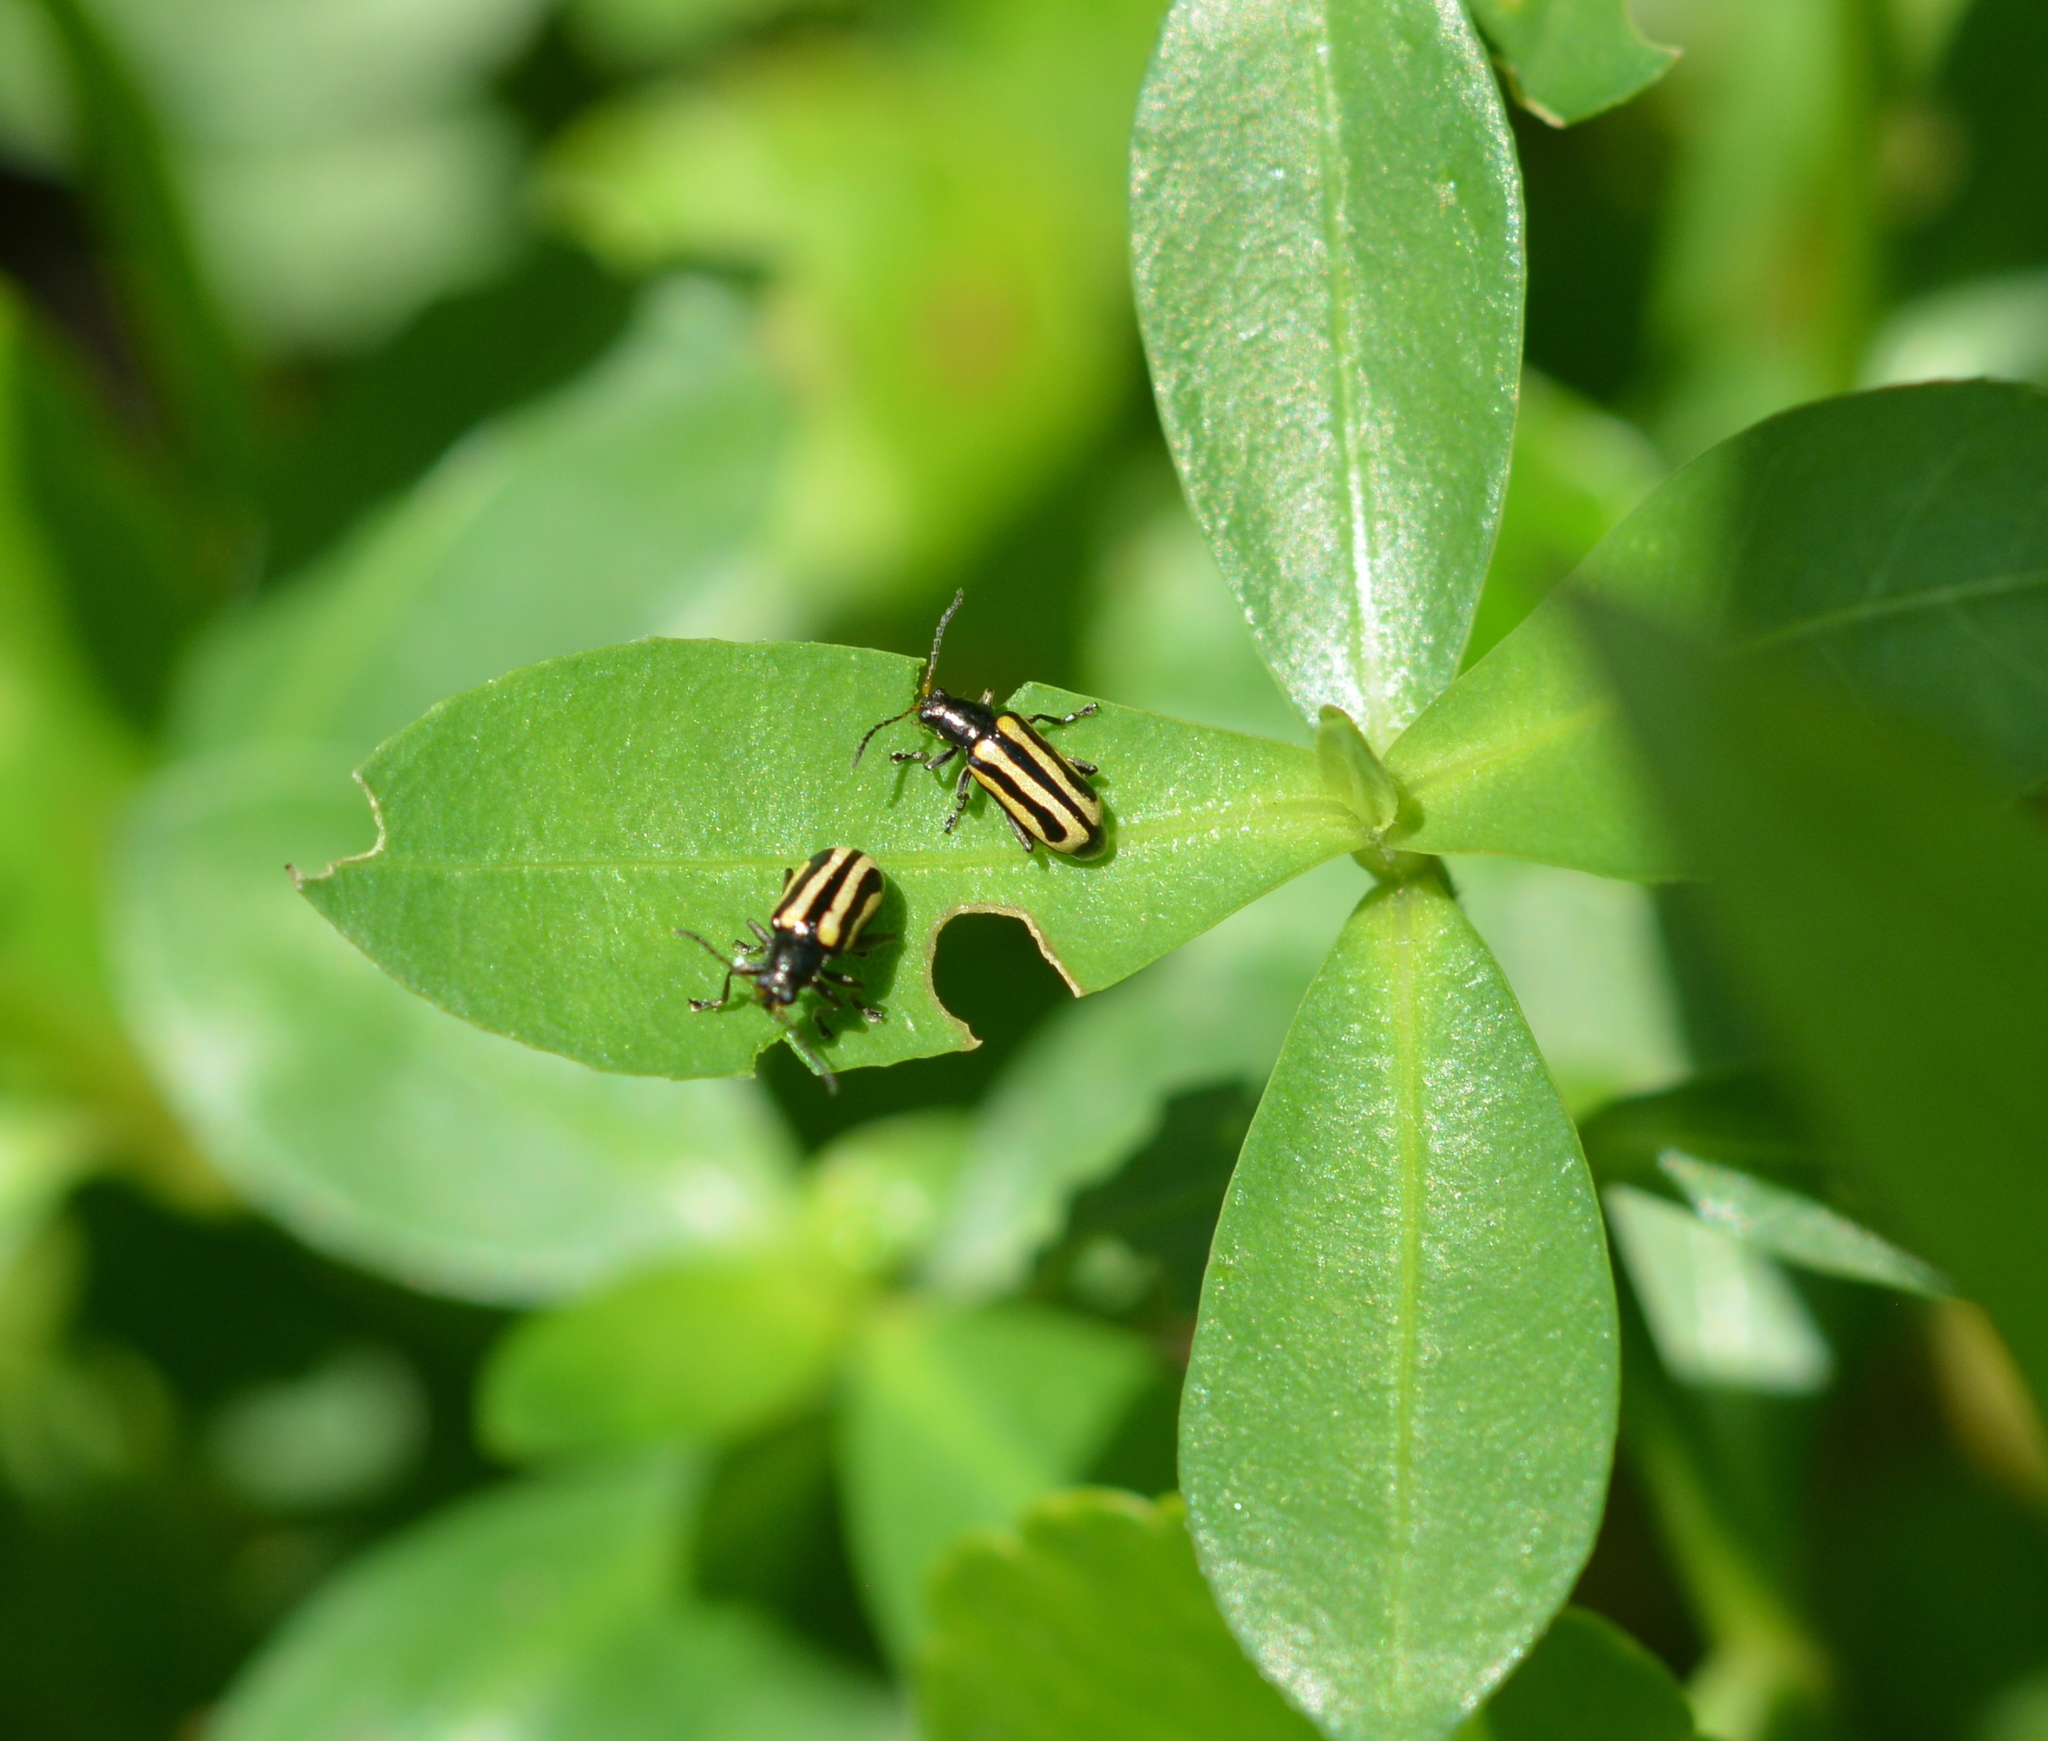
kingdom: Animalia
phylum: Arthropoda
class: Insecta
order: Coleoptera
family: Chrysomelidae
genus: Agasicles
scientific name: Agasicles hygrophila
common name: Alligatorweed flea beetle
